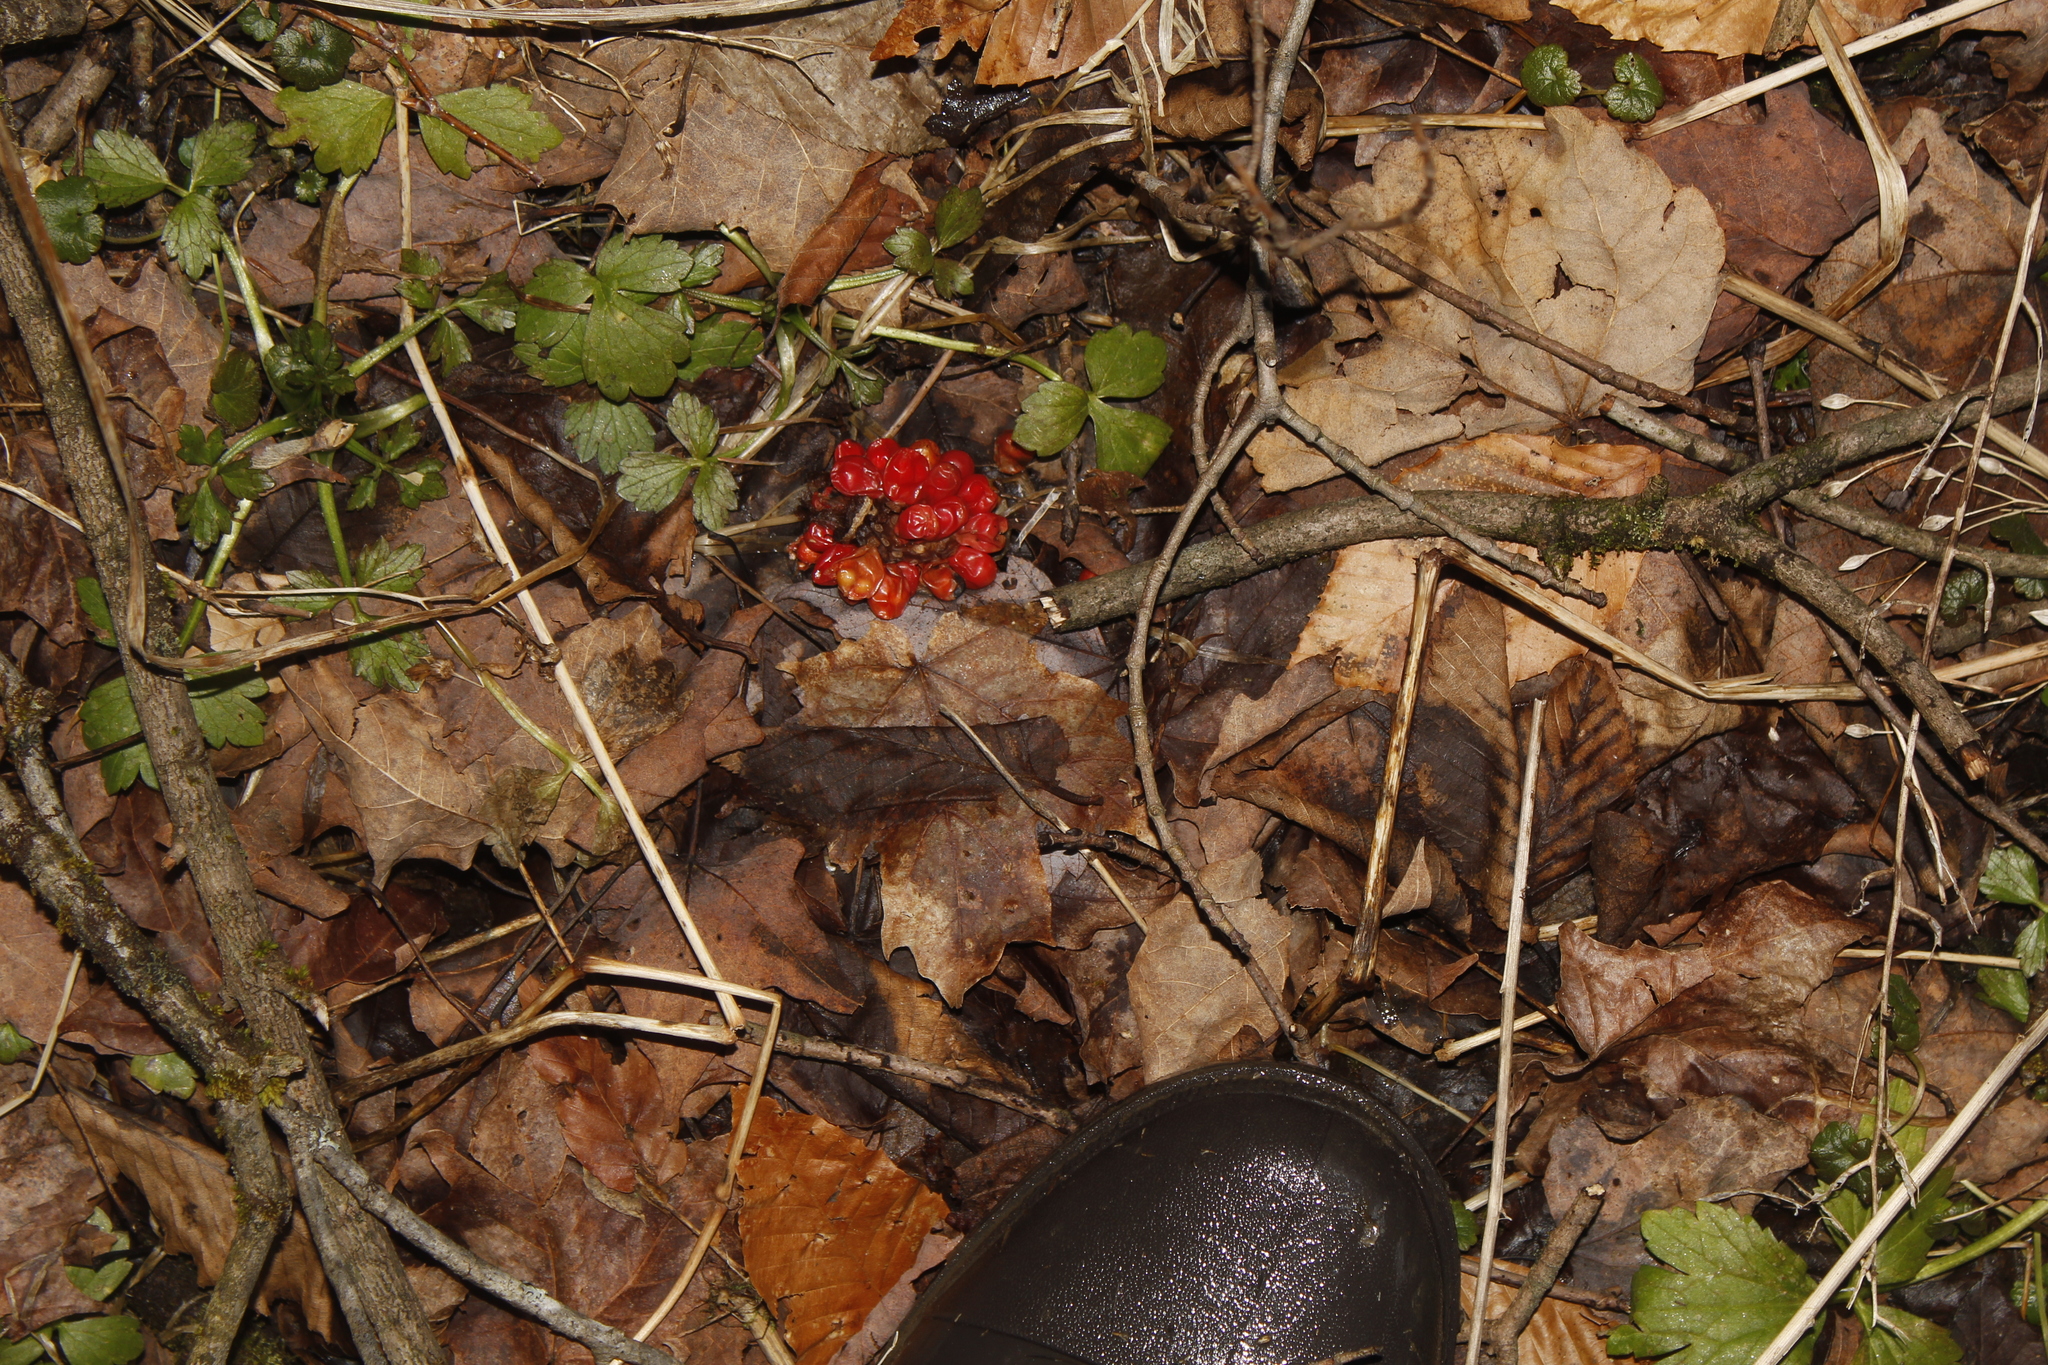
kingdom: Plantae
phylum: Tracheophyta
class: Liliopsida
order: Alismatales
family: Araceae
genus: Arisaema
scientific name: Arisaema triphyllum
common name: Jack-in-the-pulpit
